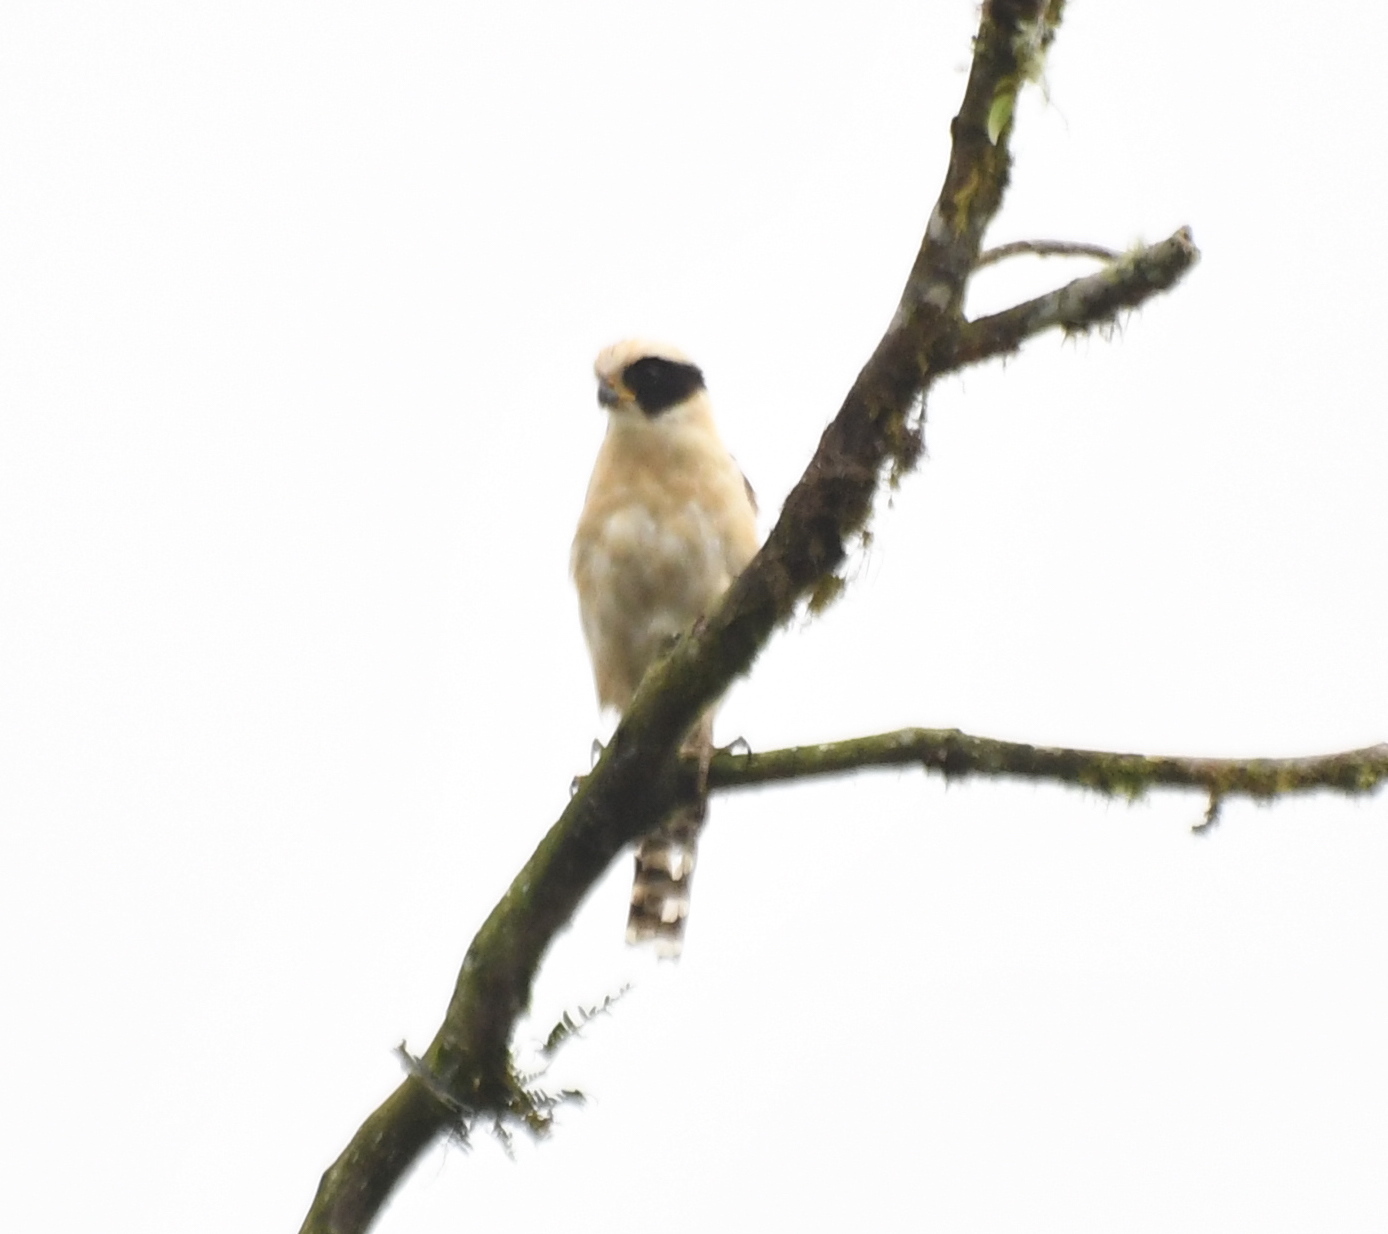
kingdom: Animalia
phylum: Chordata
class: Aves
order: Falconiformes
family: Falconidae
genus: Herpetotheres
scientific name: Herpetotheres cachinnans
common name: Laughing falcon
